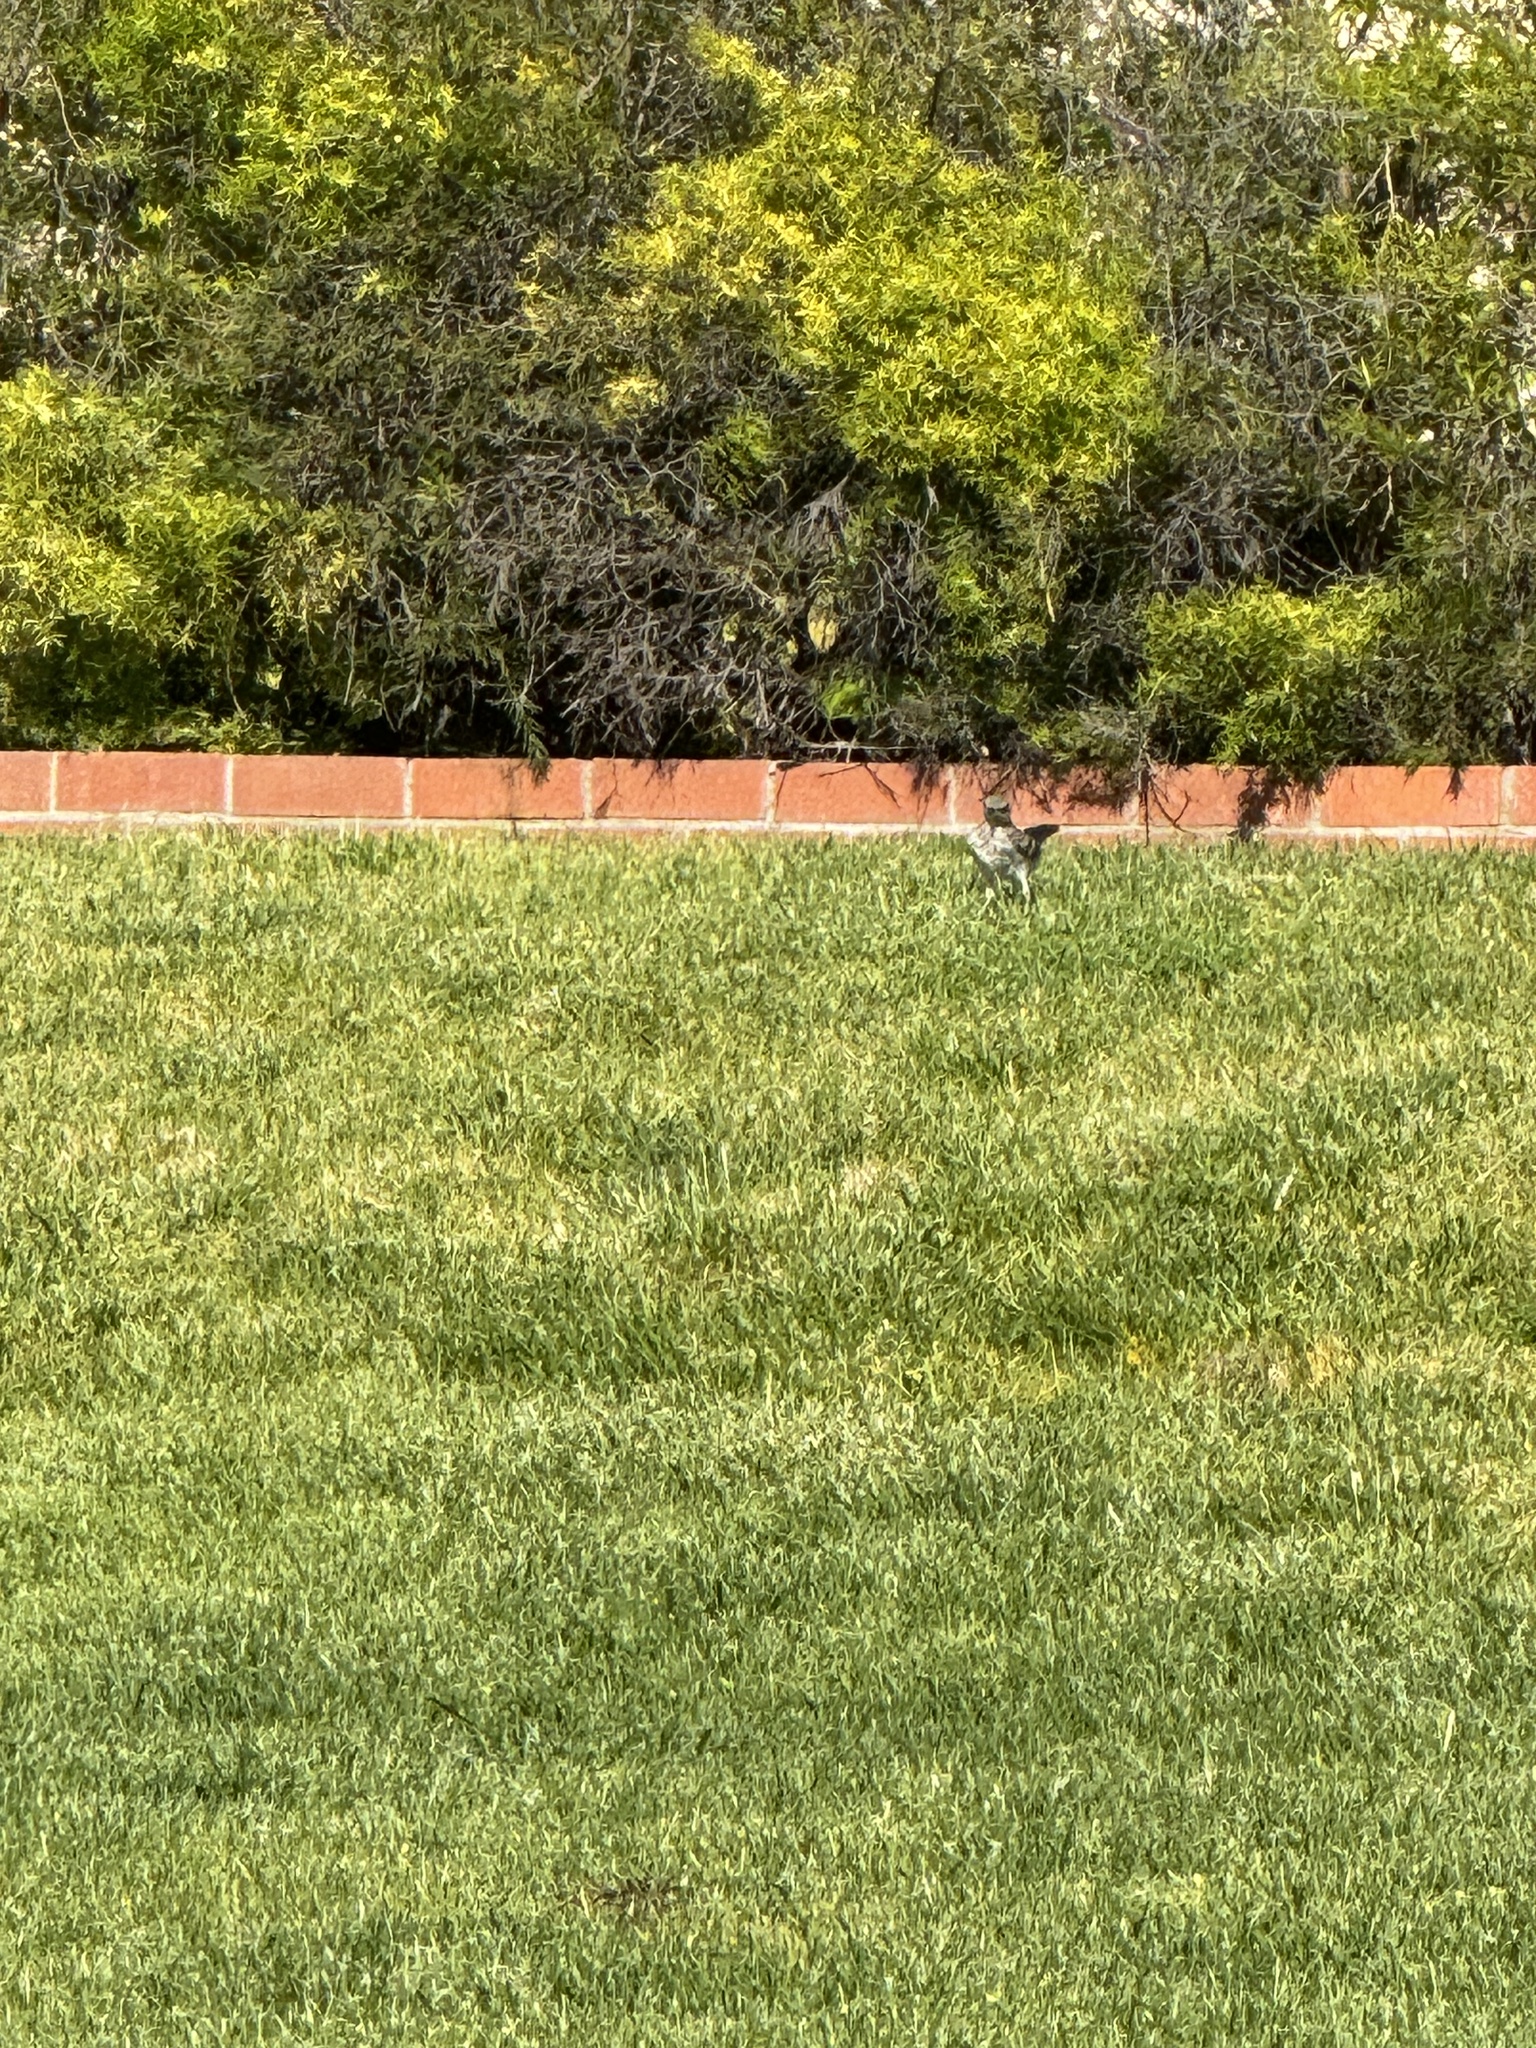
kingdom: Animalia
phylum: Chordata
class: Aves
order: Passeriformes
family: Mimidae
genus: Mimus
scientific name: Mimus polyglottos
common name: Northern mockingbird
